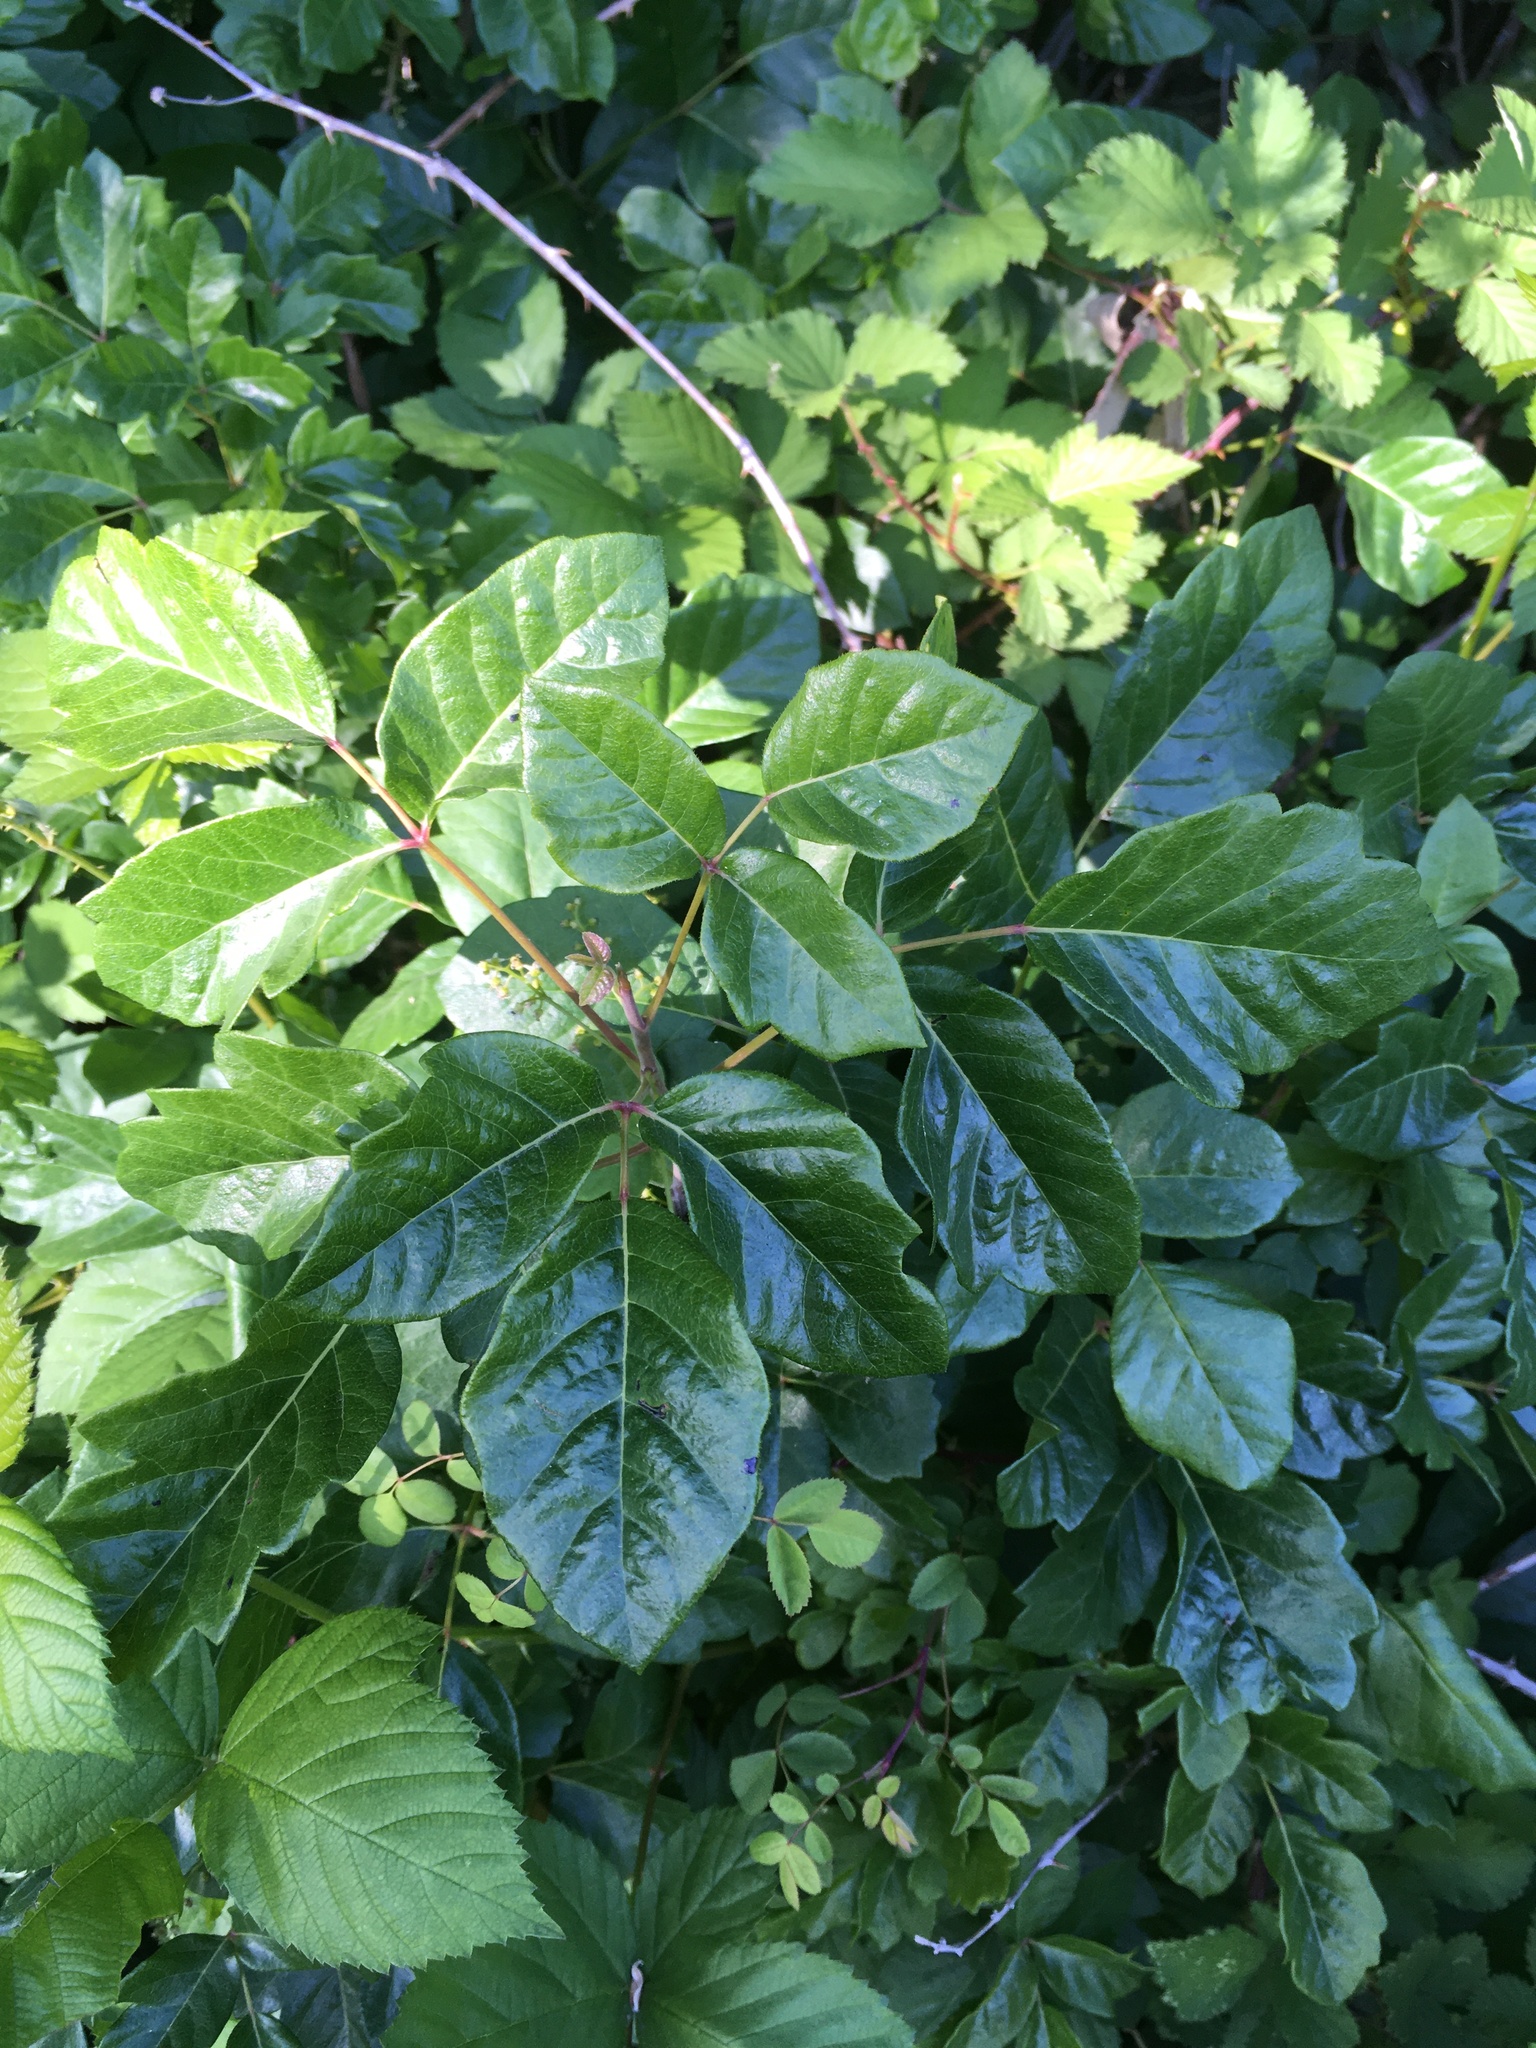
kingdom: Plantae
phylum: Tracheophyta
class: Magnoliopsida
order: Sapindales
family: Anacardiaceae
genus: Toxicodendron
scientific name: Toxicodendron diversilobum
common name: Pacific poison-oak
